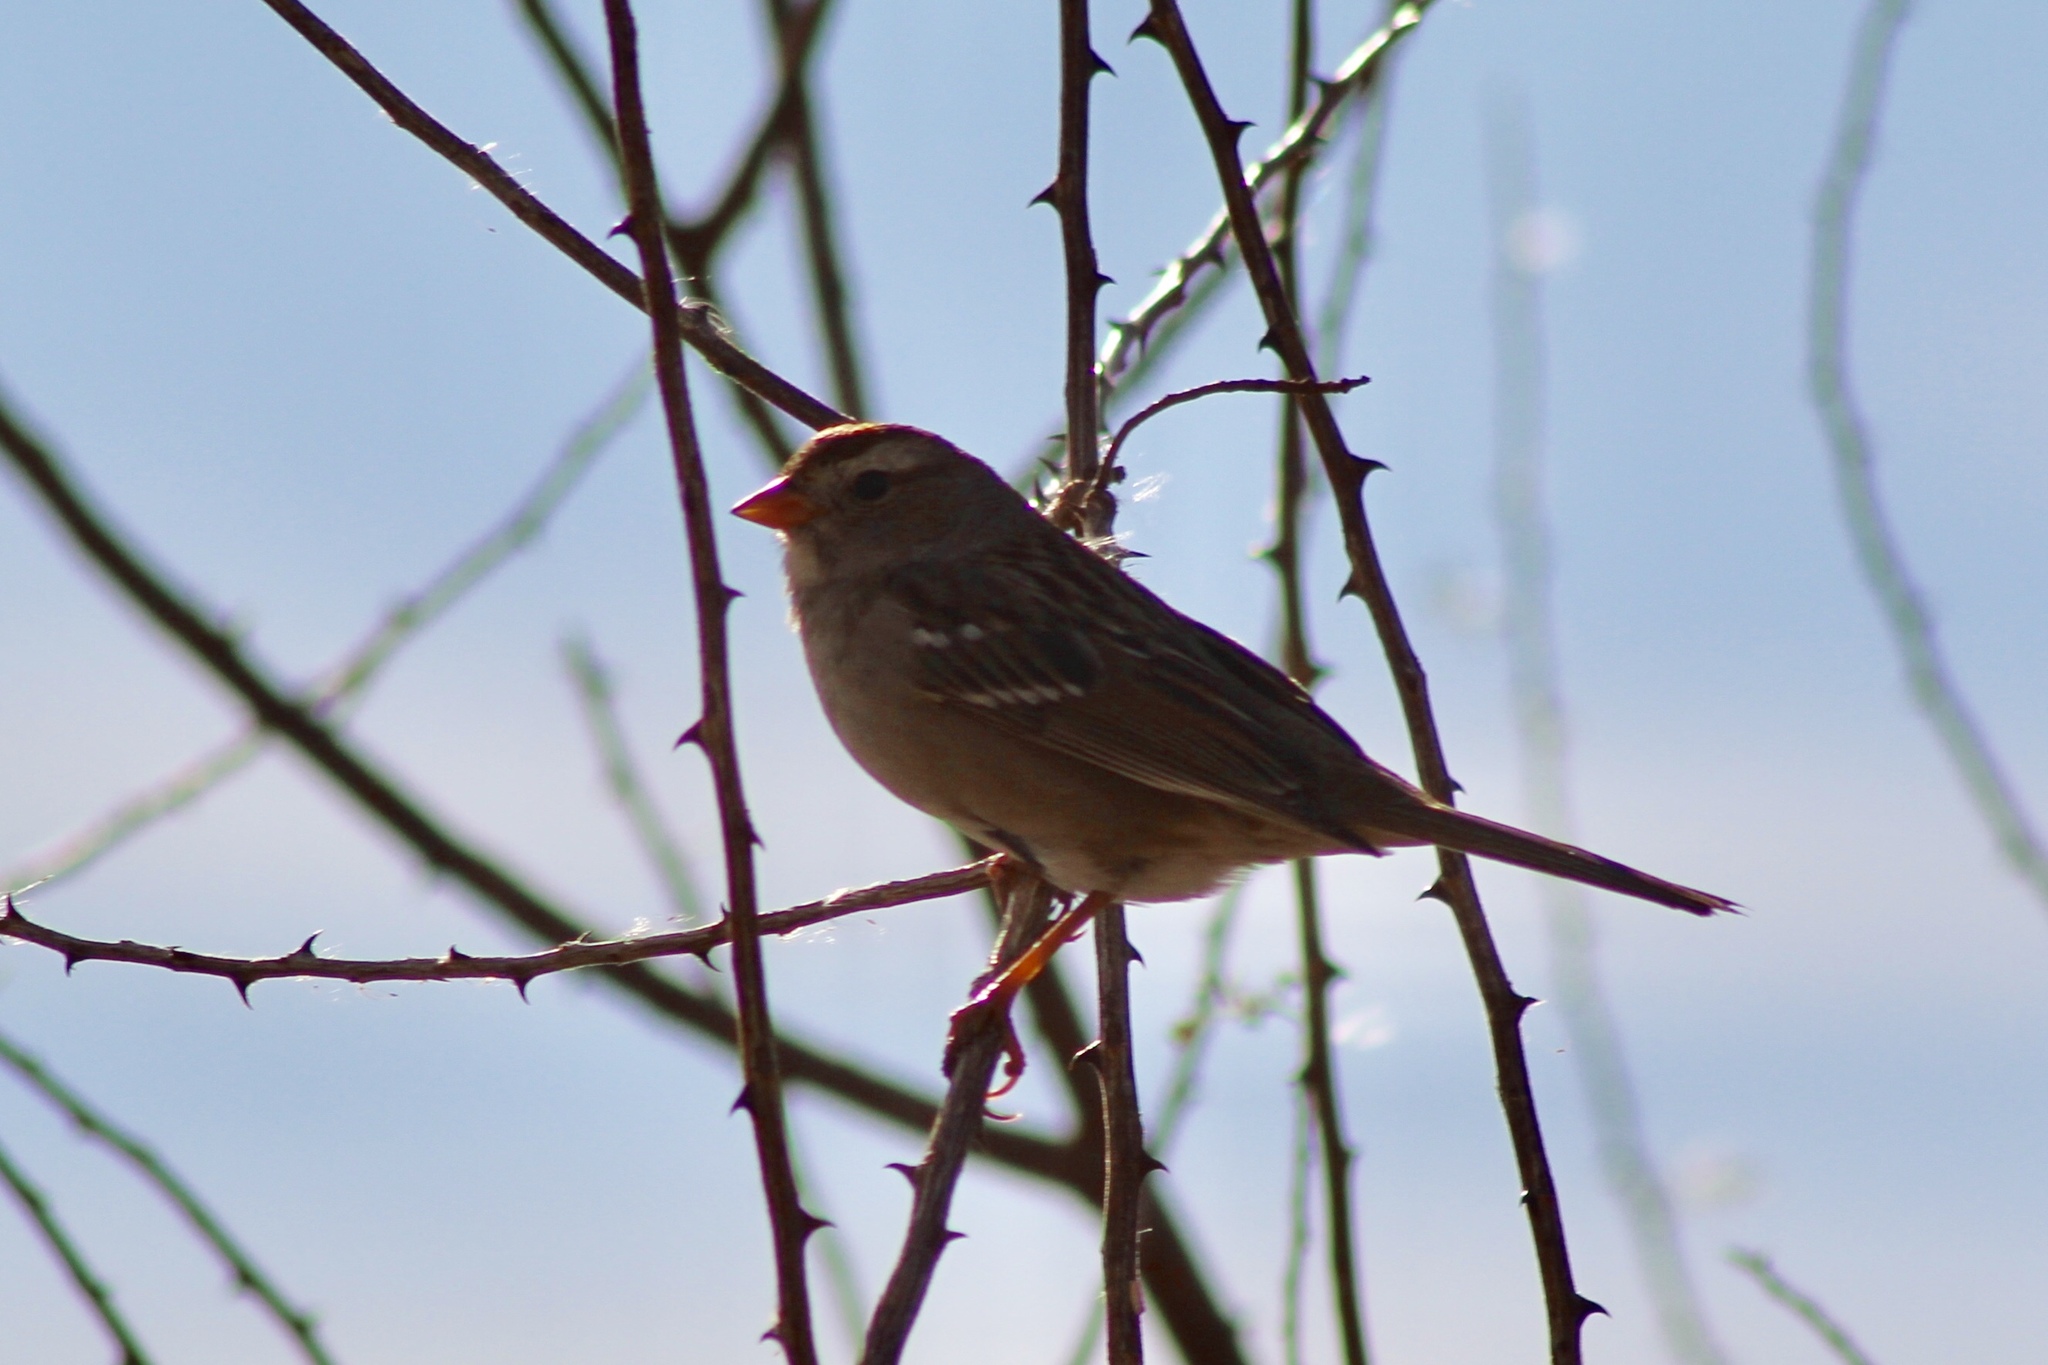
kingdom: Animalia
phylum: Chordata
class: Aves
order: Passeriformes
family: Passerellidae
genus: Zonotrichia
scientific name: Zonotrichia leucophrys
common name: White-crowned sparrow
